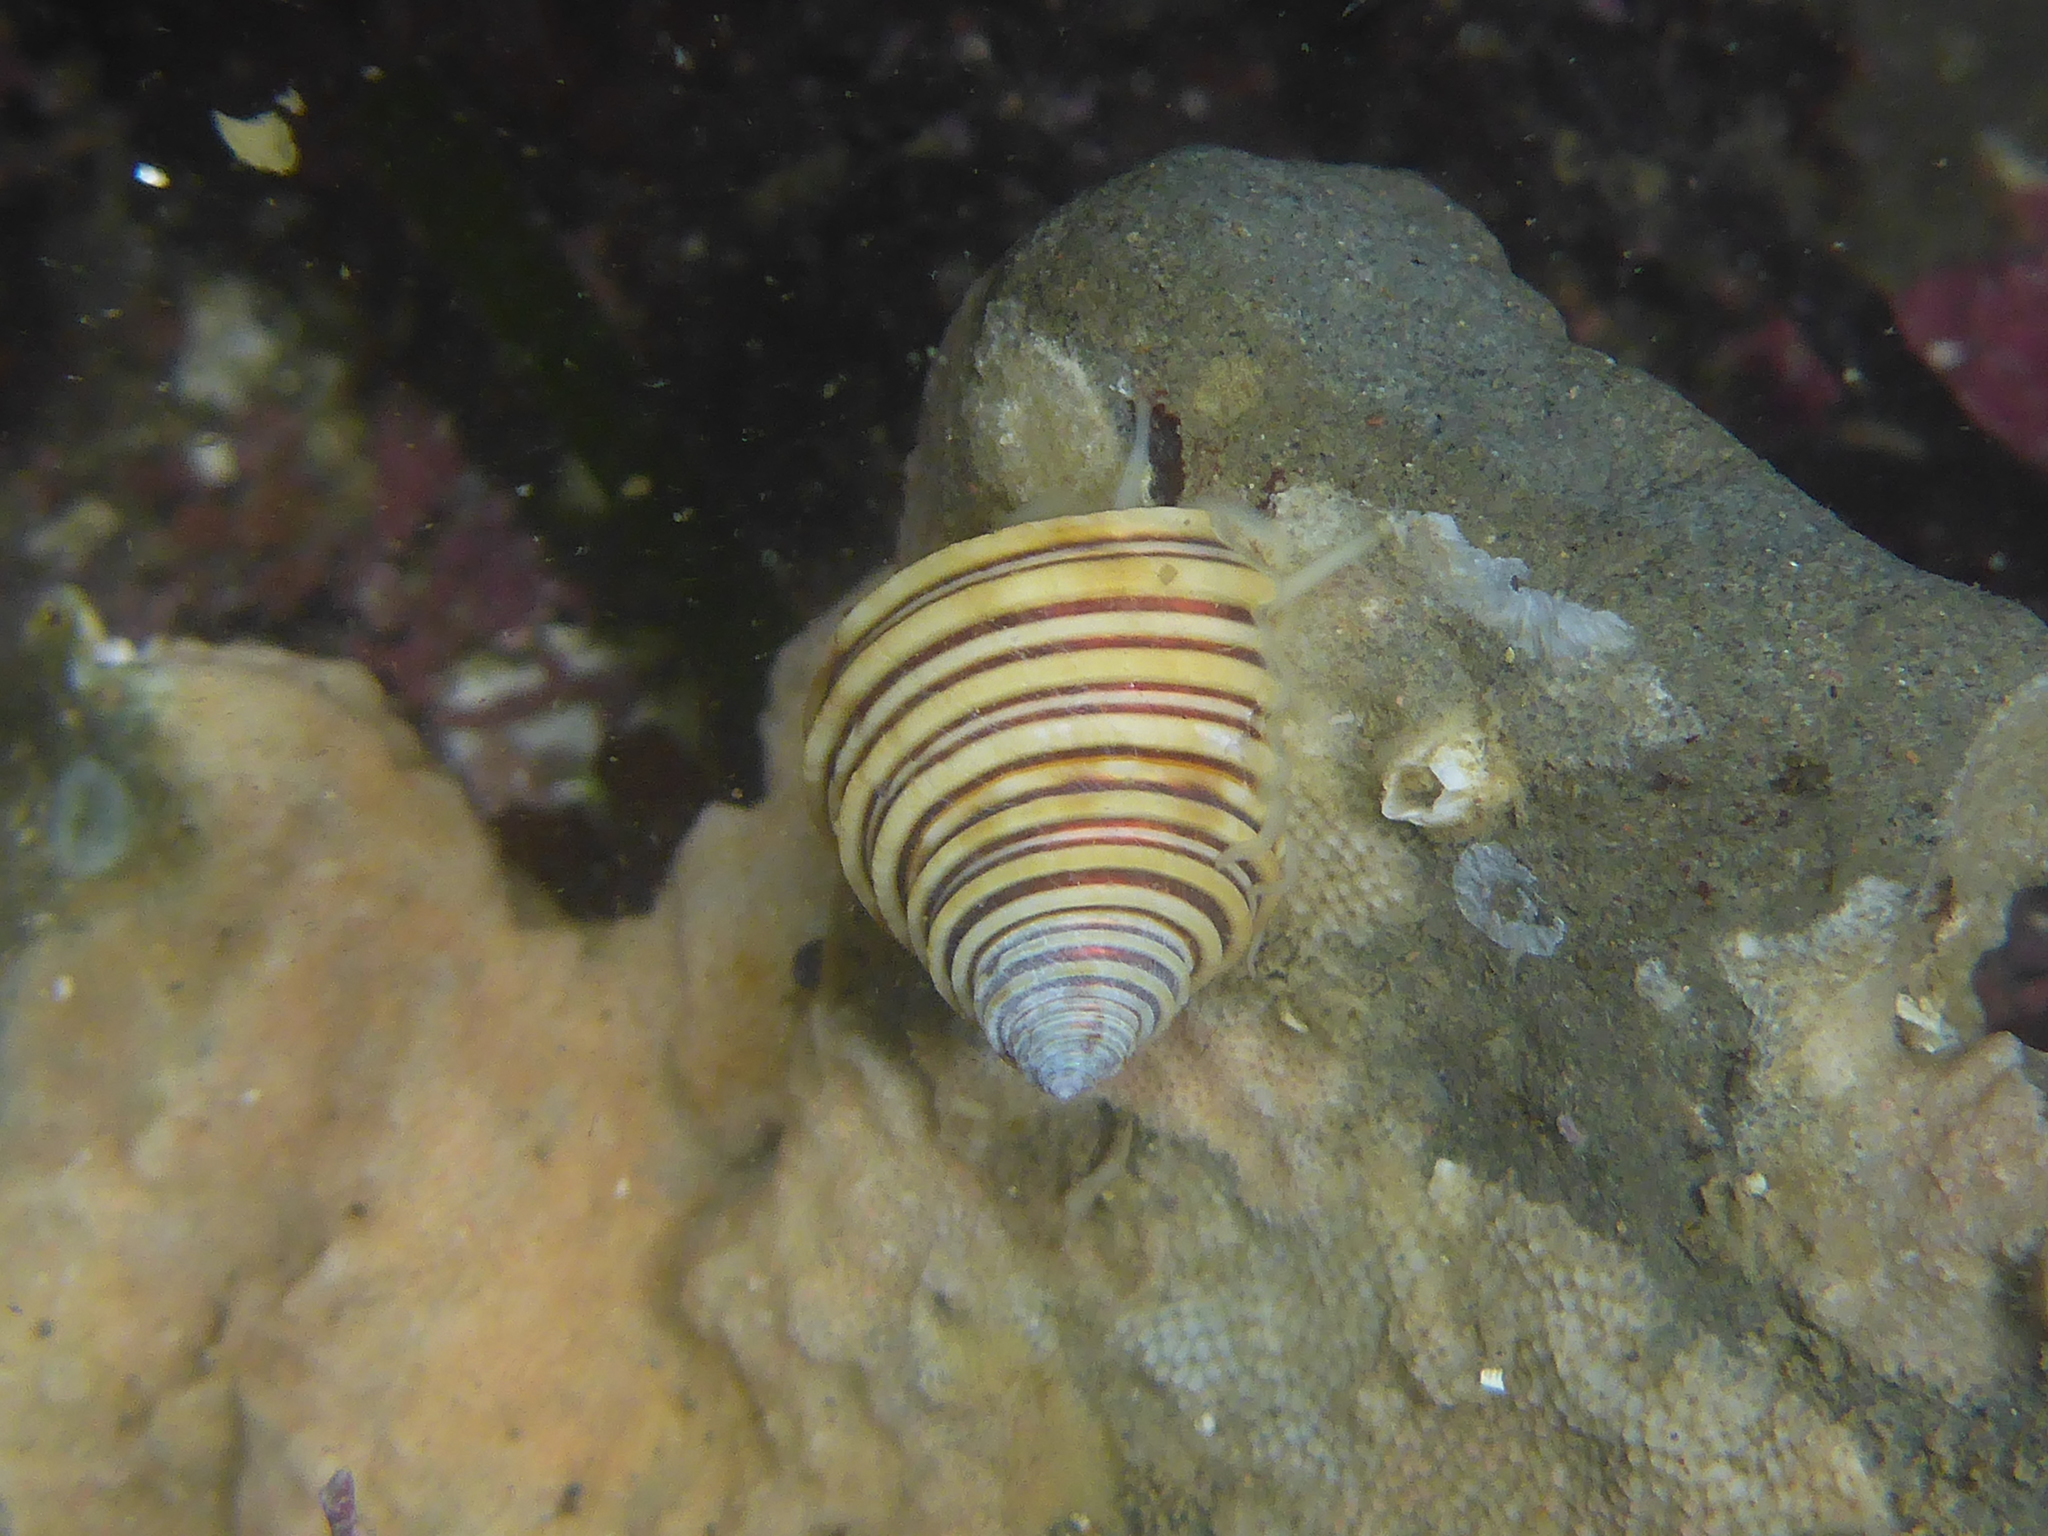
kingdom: Animalia
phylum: Mollusca
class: Gastropoda
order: Trochida
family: Calliostomatidae
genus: Calliostoma
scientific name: Calliostoma canaliculatum
